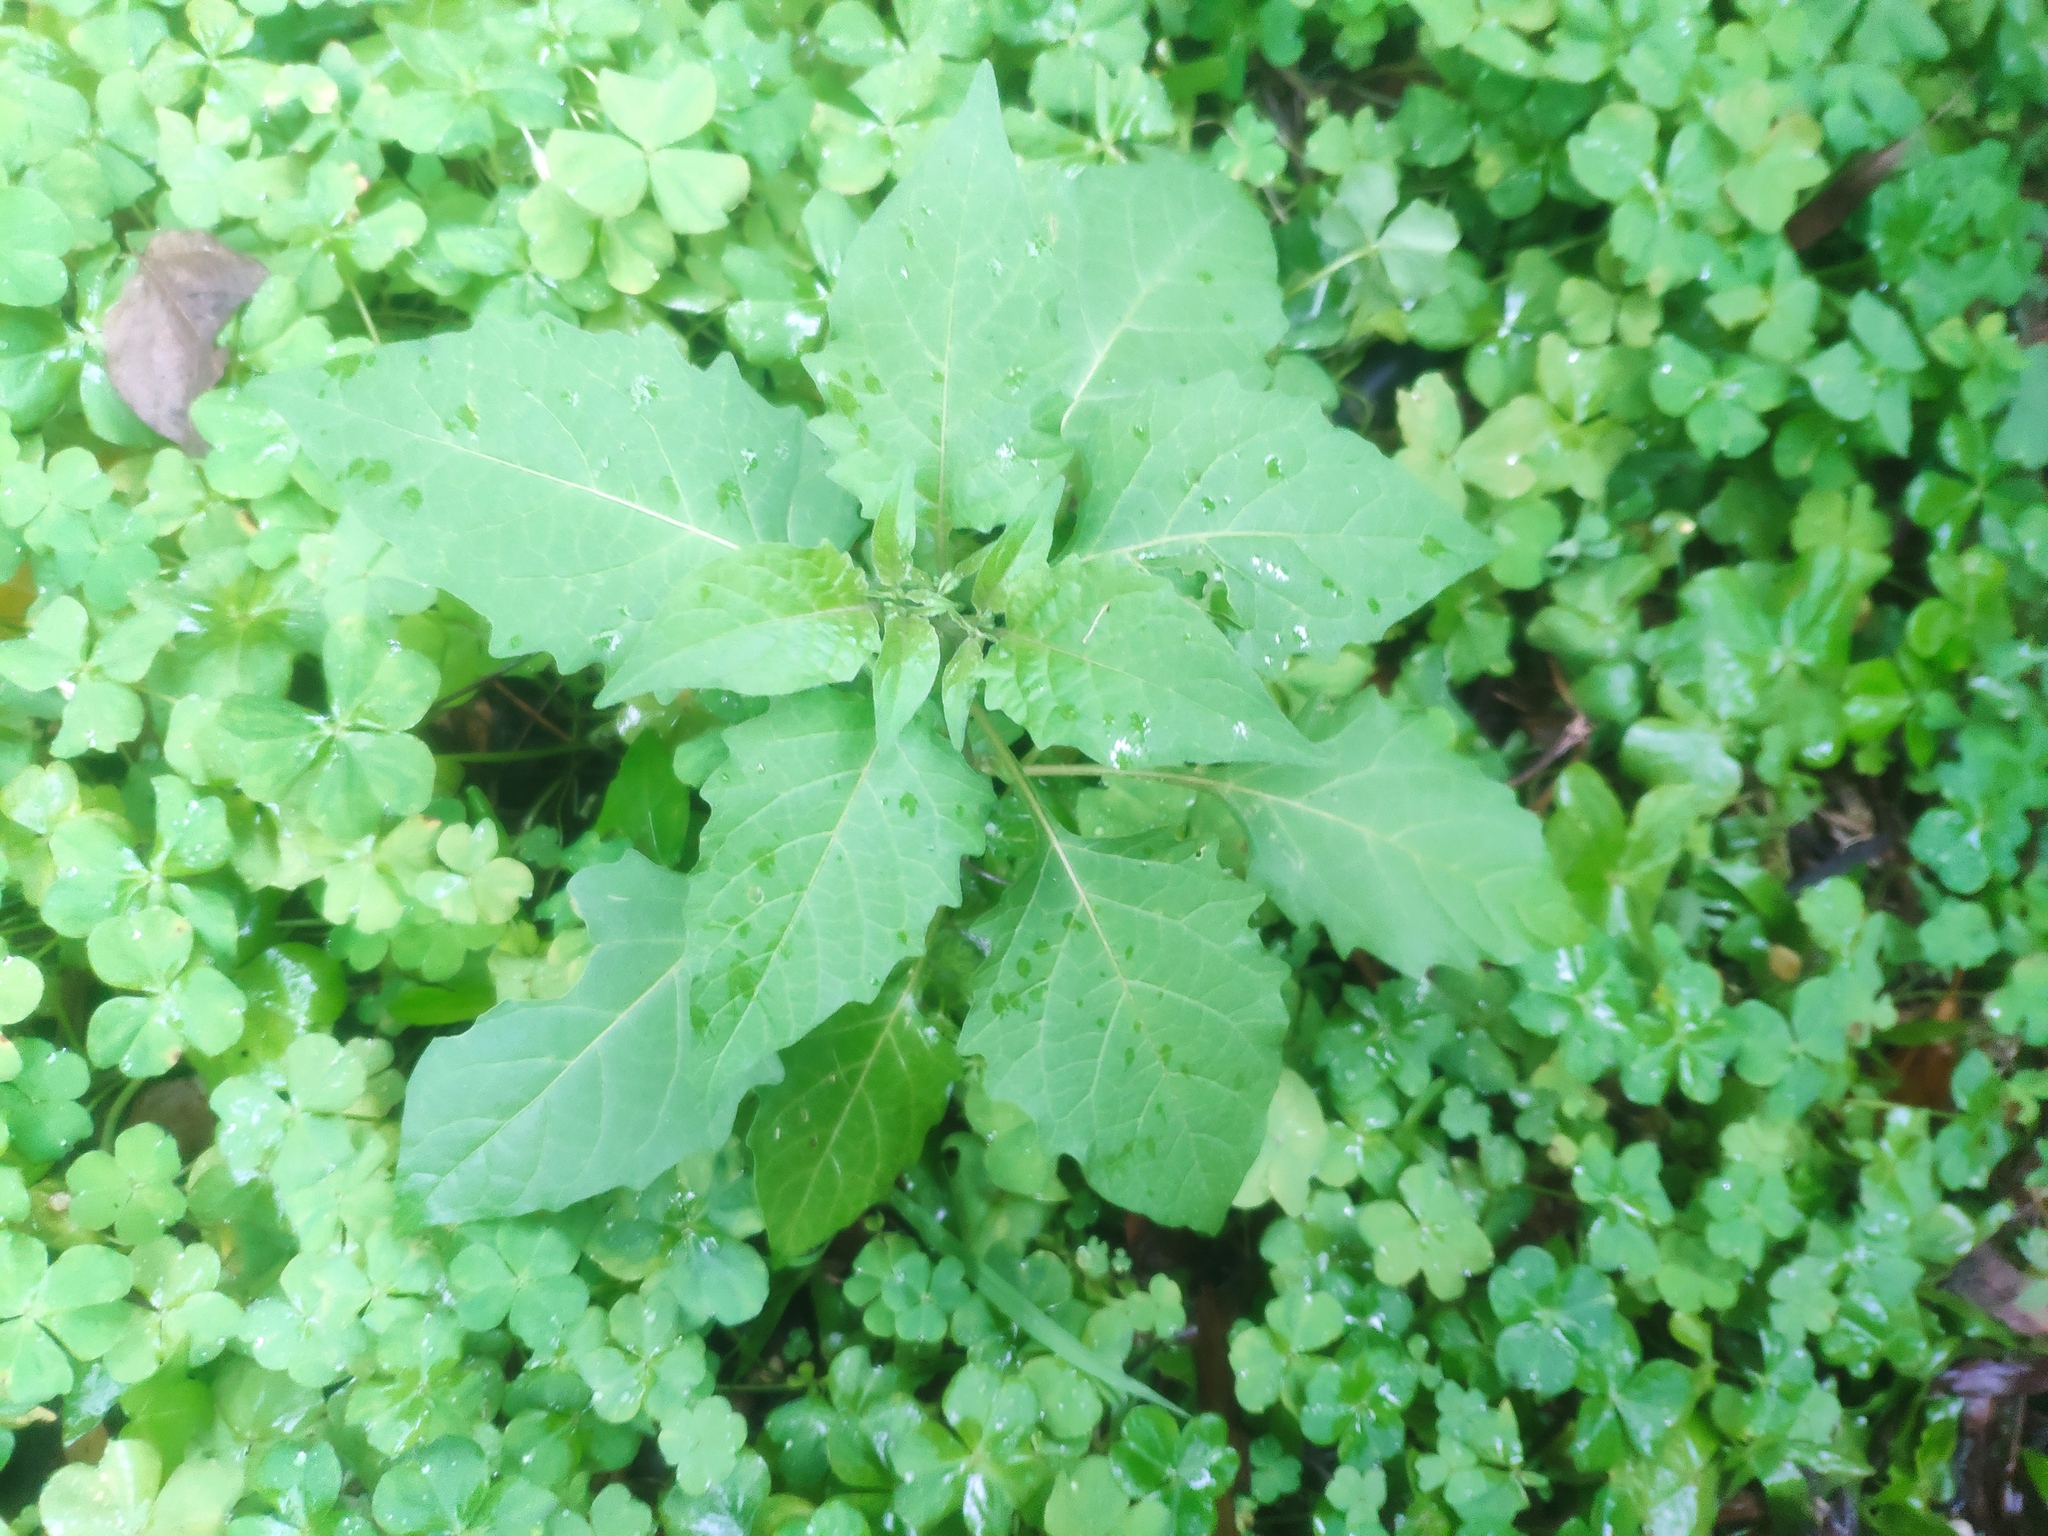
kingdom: Plantae
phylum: Tracheophyta
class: Magnoliopsida
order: Solanales
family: Solanaceae
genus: Solanum
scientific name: Solanum
